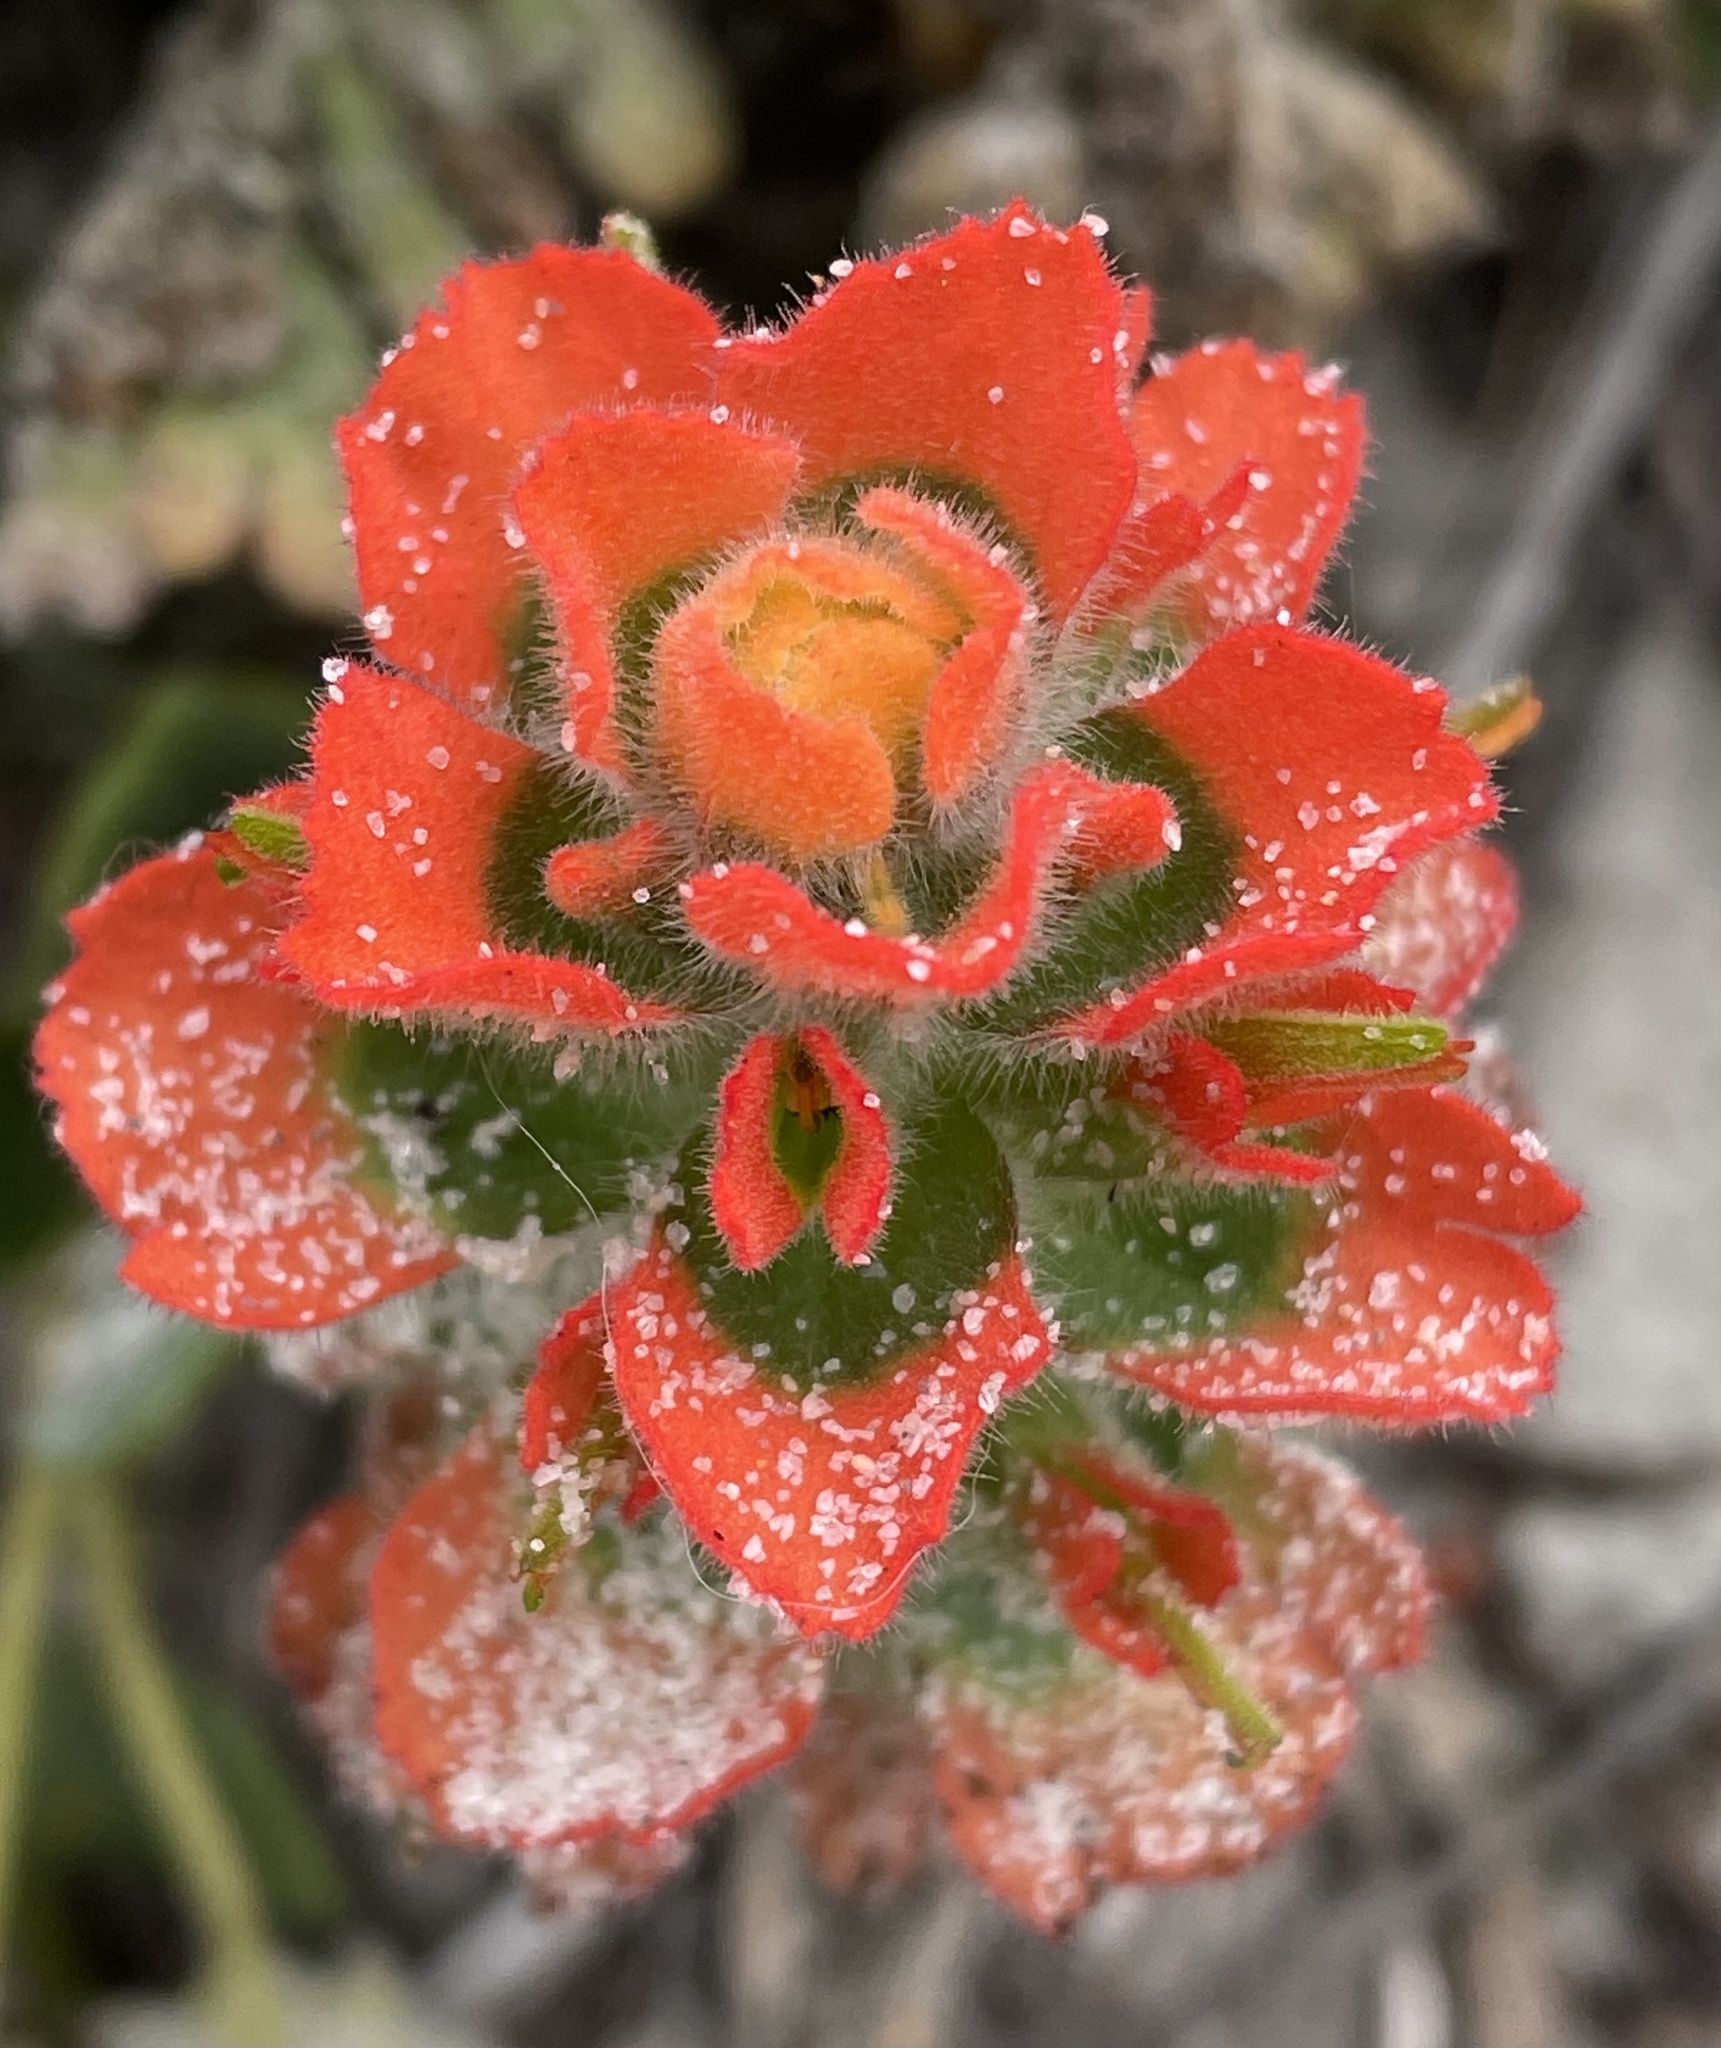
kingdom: Plantae
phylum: Tracheophyta
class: Magnoliopsida
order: Lamiales
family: Orobanchaceae
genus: Castilleja
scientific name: Castilleja latifolia
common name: Monterey indian paintbrush
